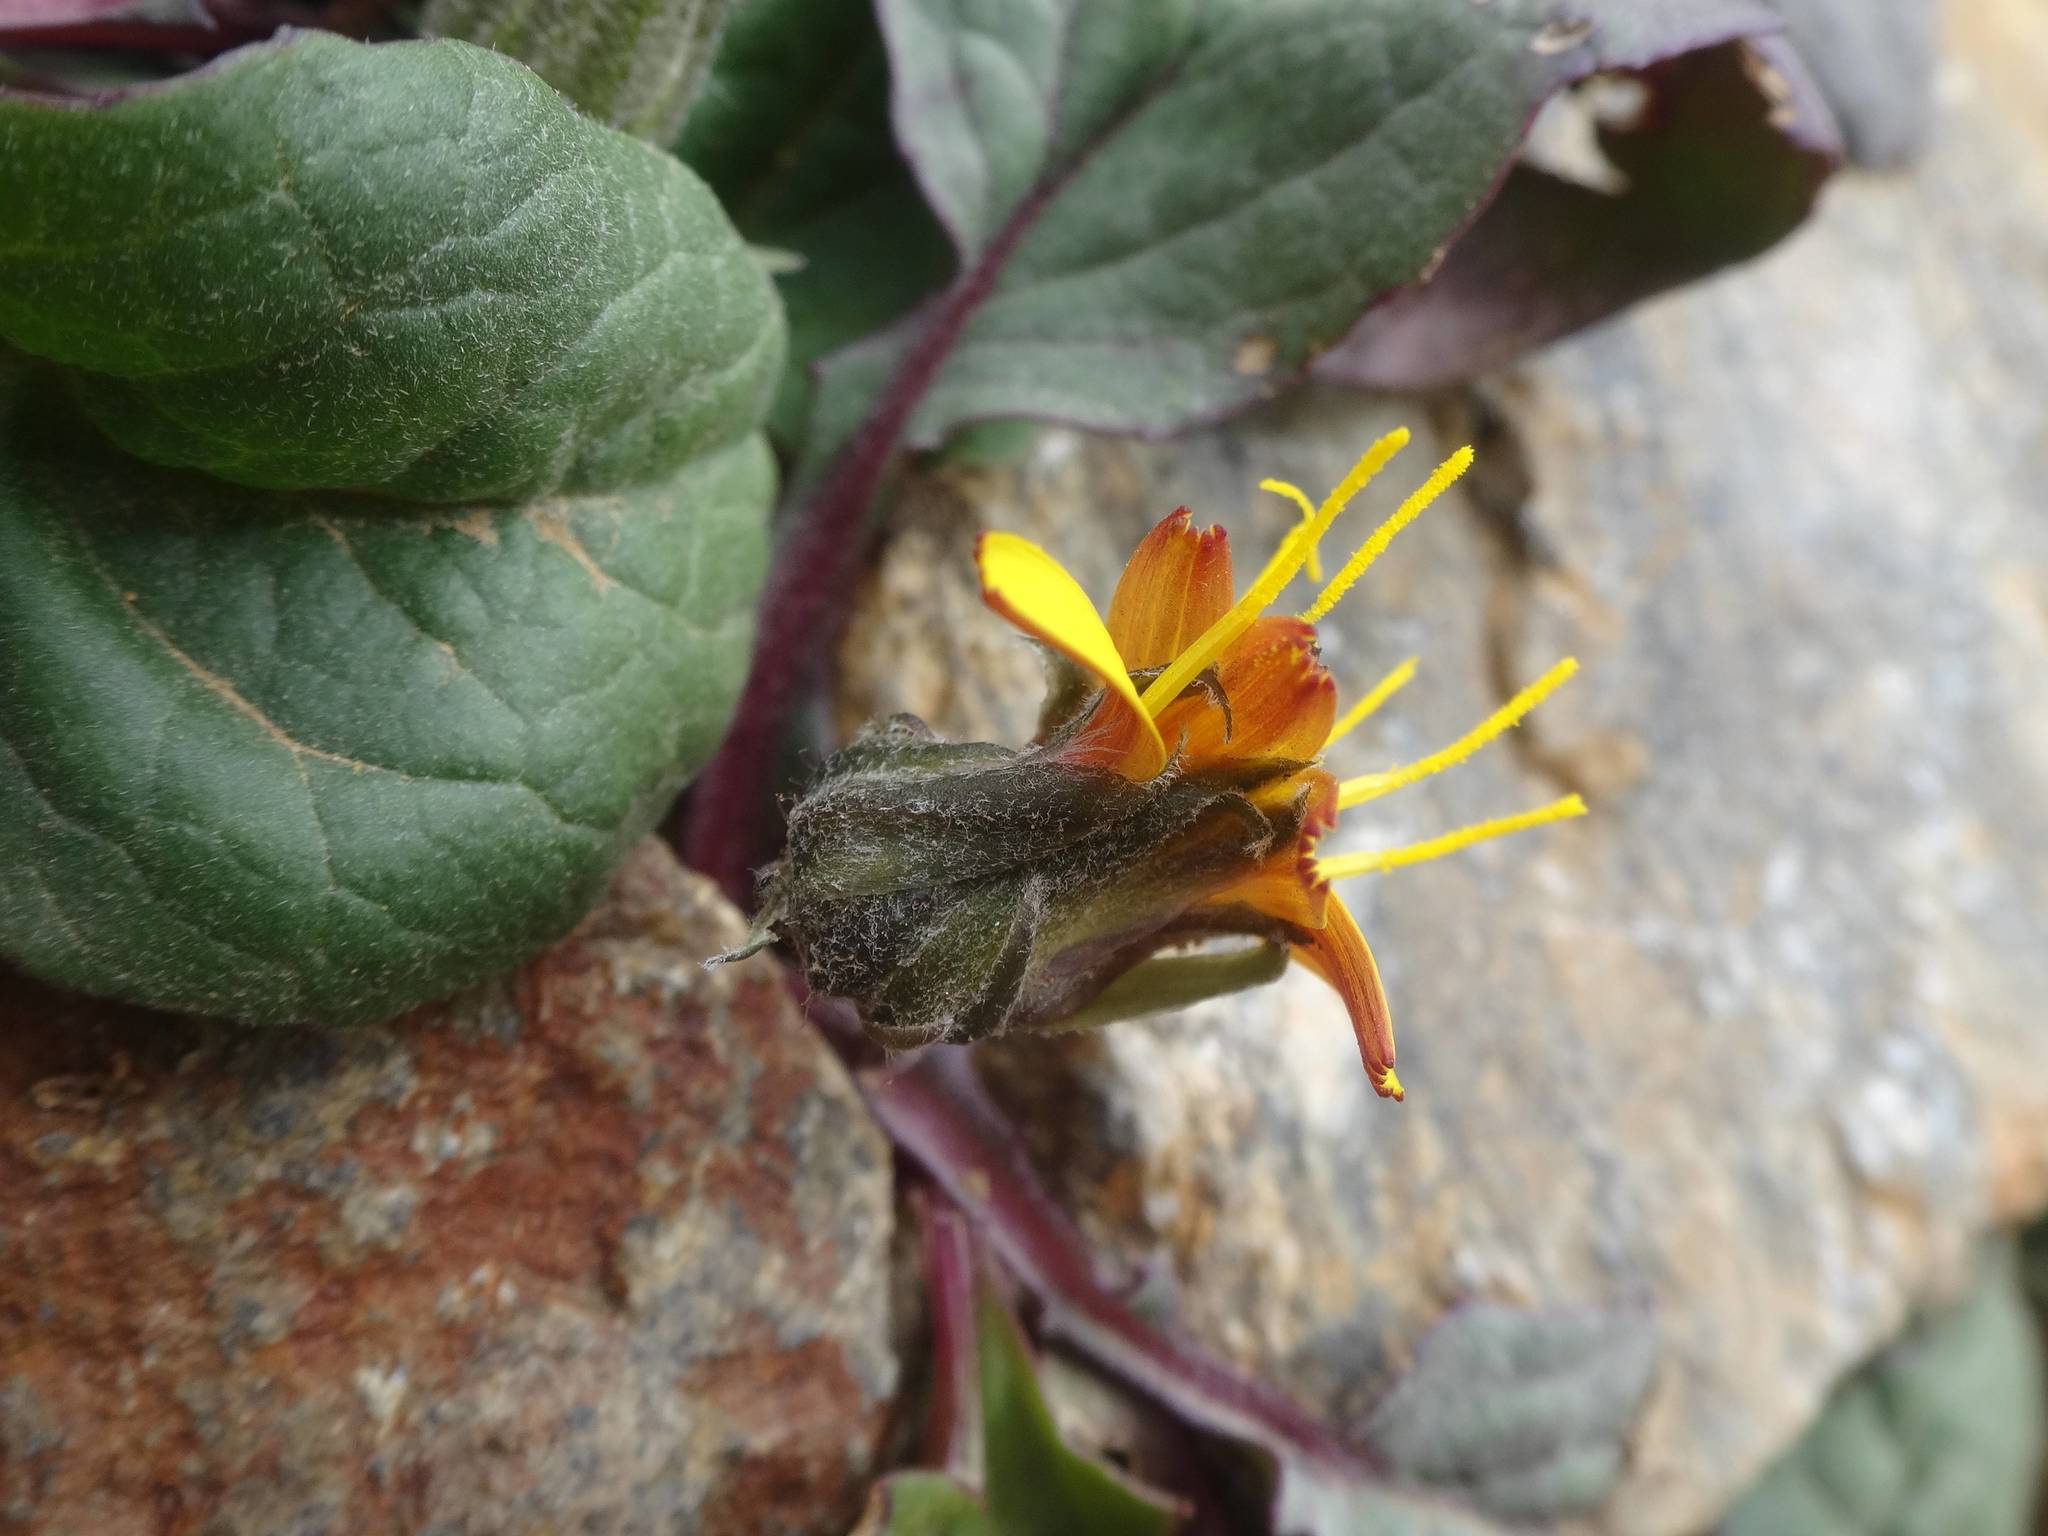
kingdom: Plantae
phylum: Tracheophyta
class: Magnoliopsida
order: Asterales
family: Asteraceae
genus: Crepis
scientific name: Crepis pygmaea
